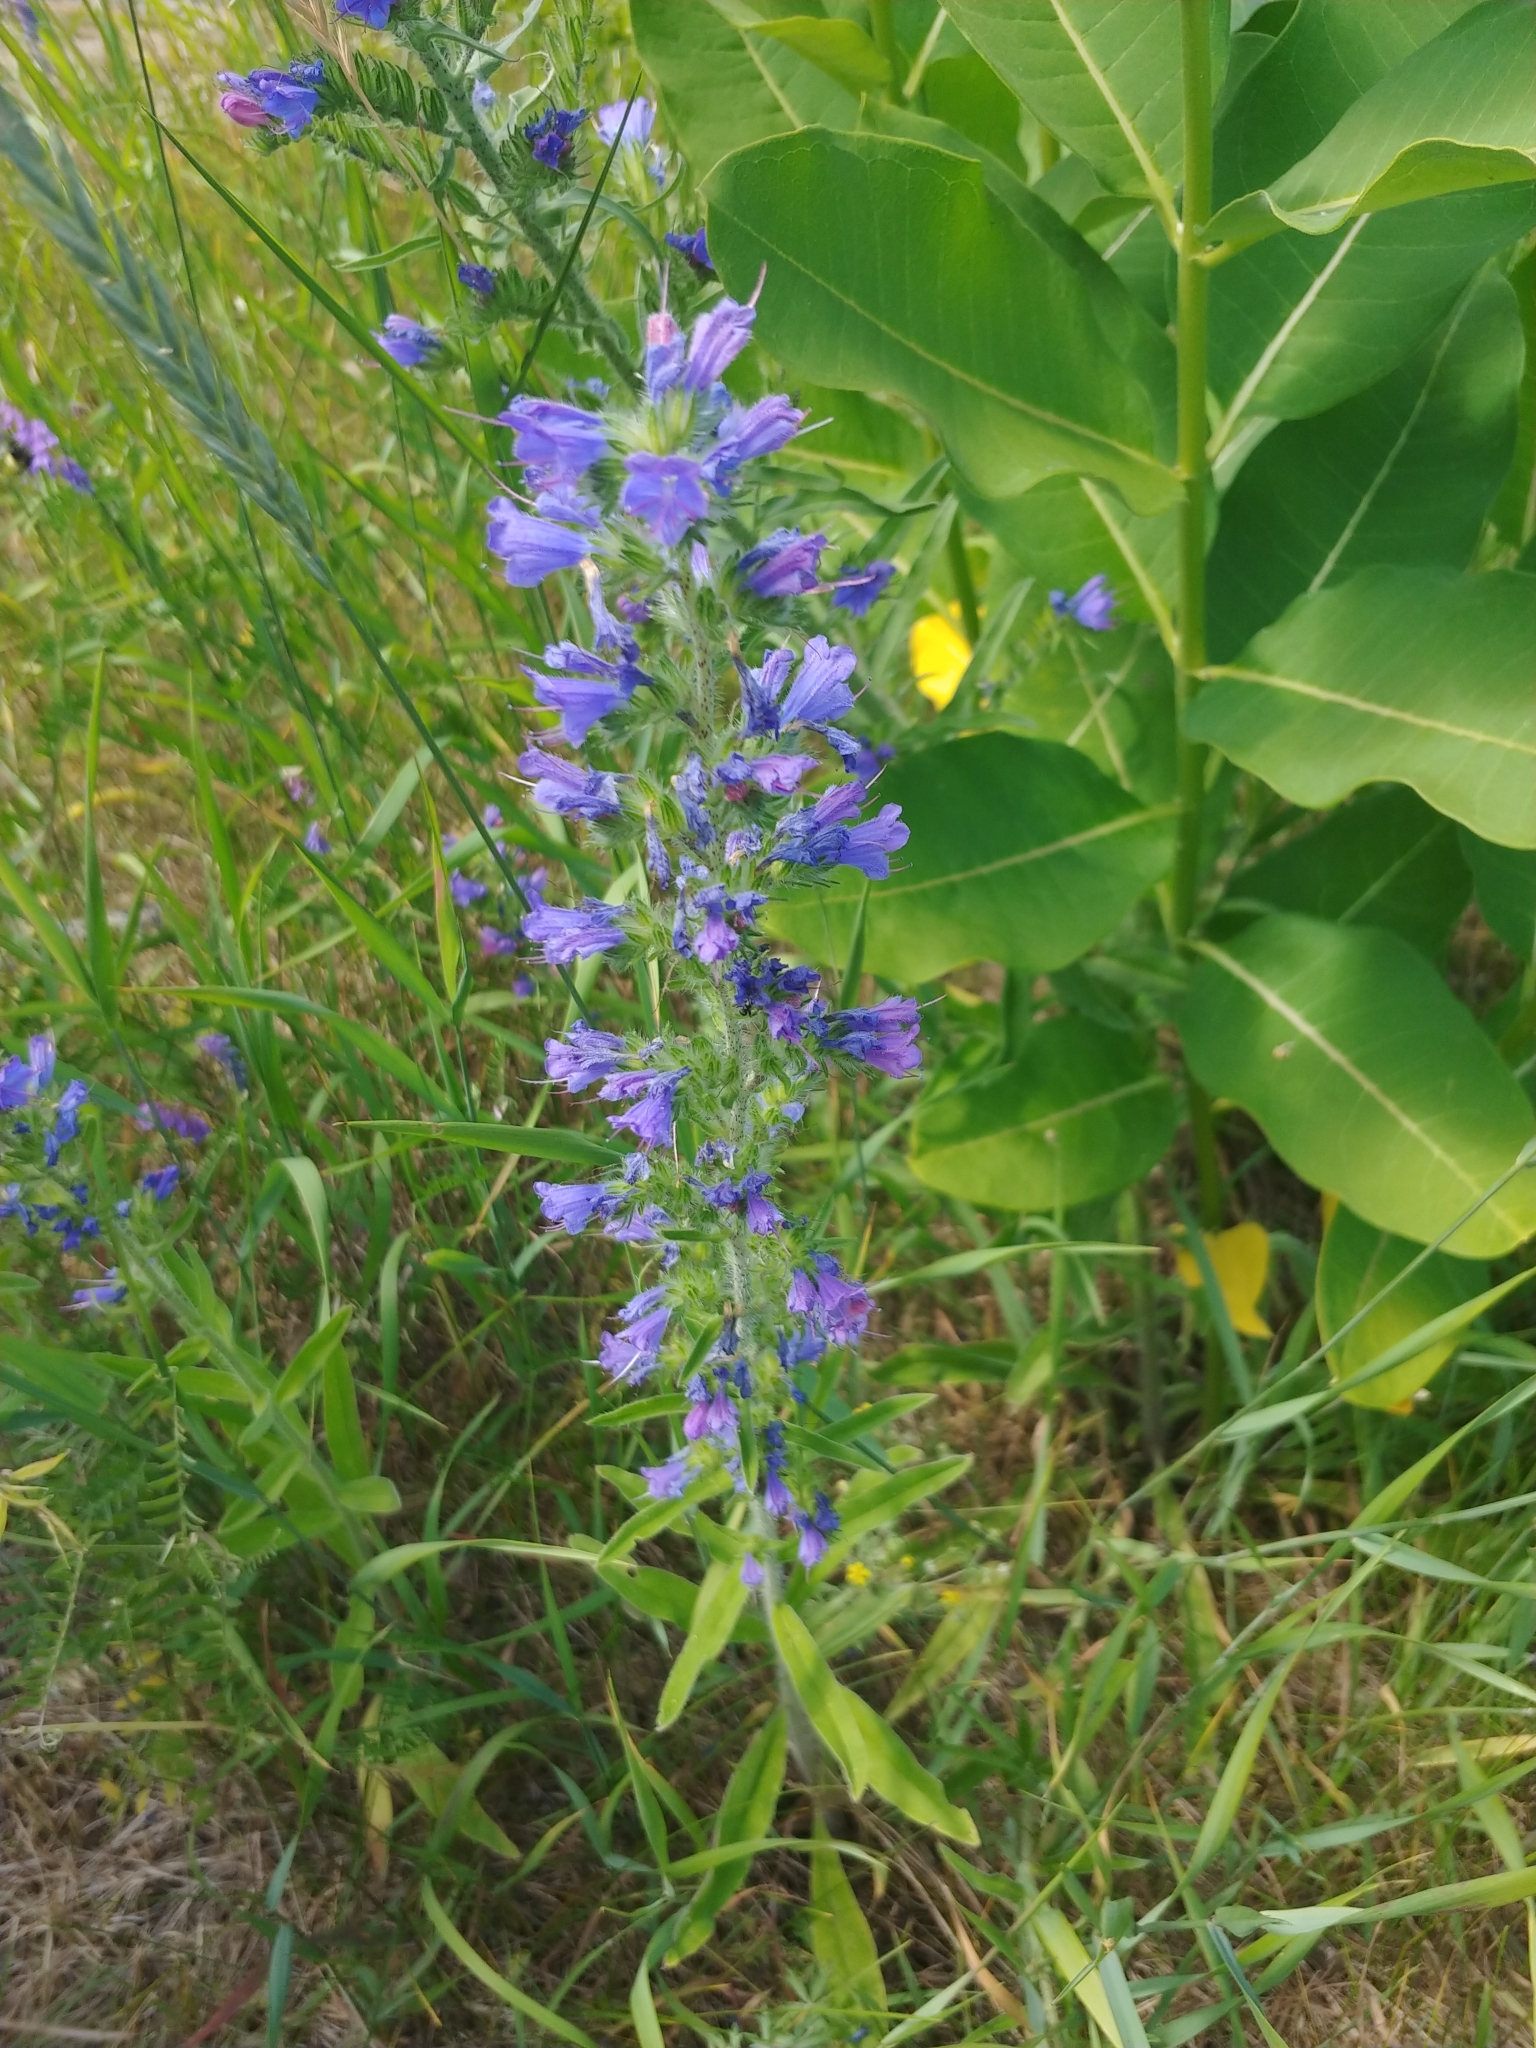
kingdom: Plantae
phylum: Tracheophyta
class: Magnoliopsida
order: Boraginales
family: Boraginaceae
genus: Echium
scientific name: Echium vulgare
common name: Common viper's bugloss
